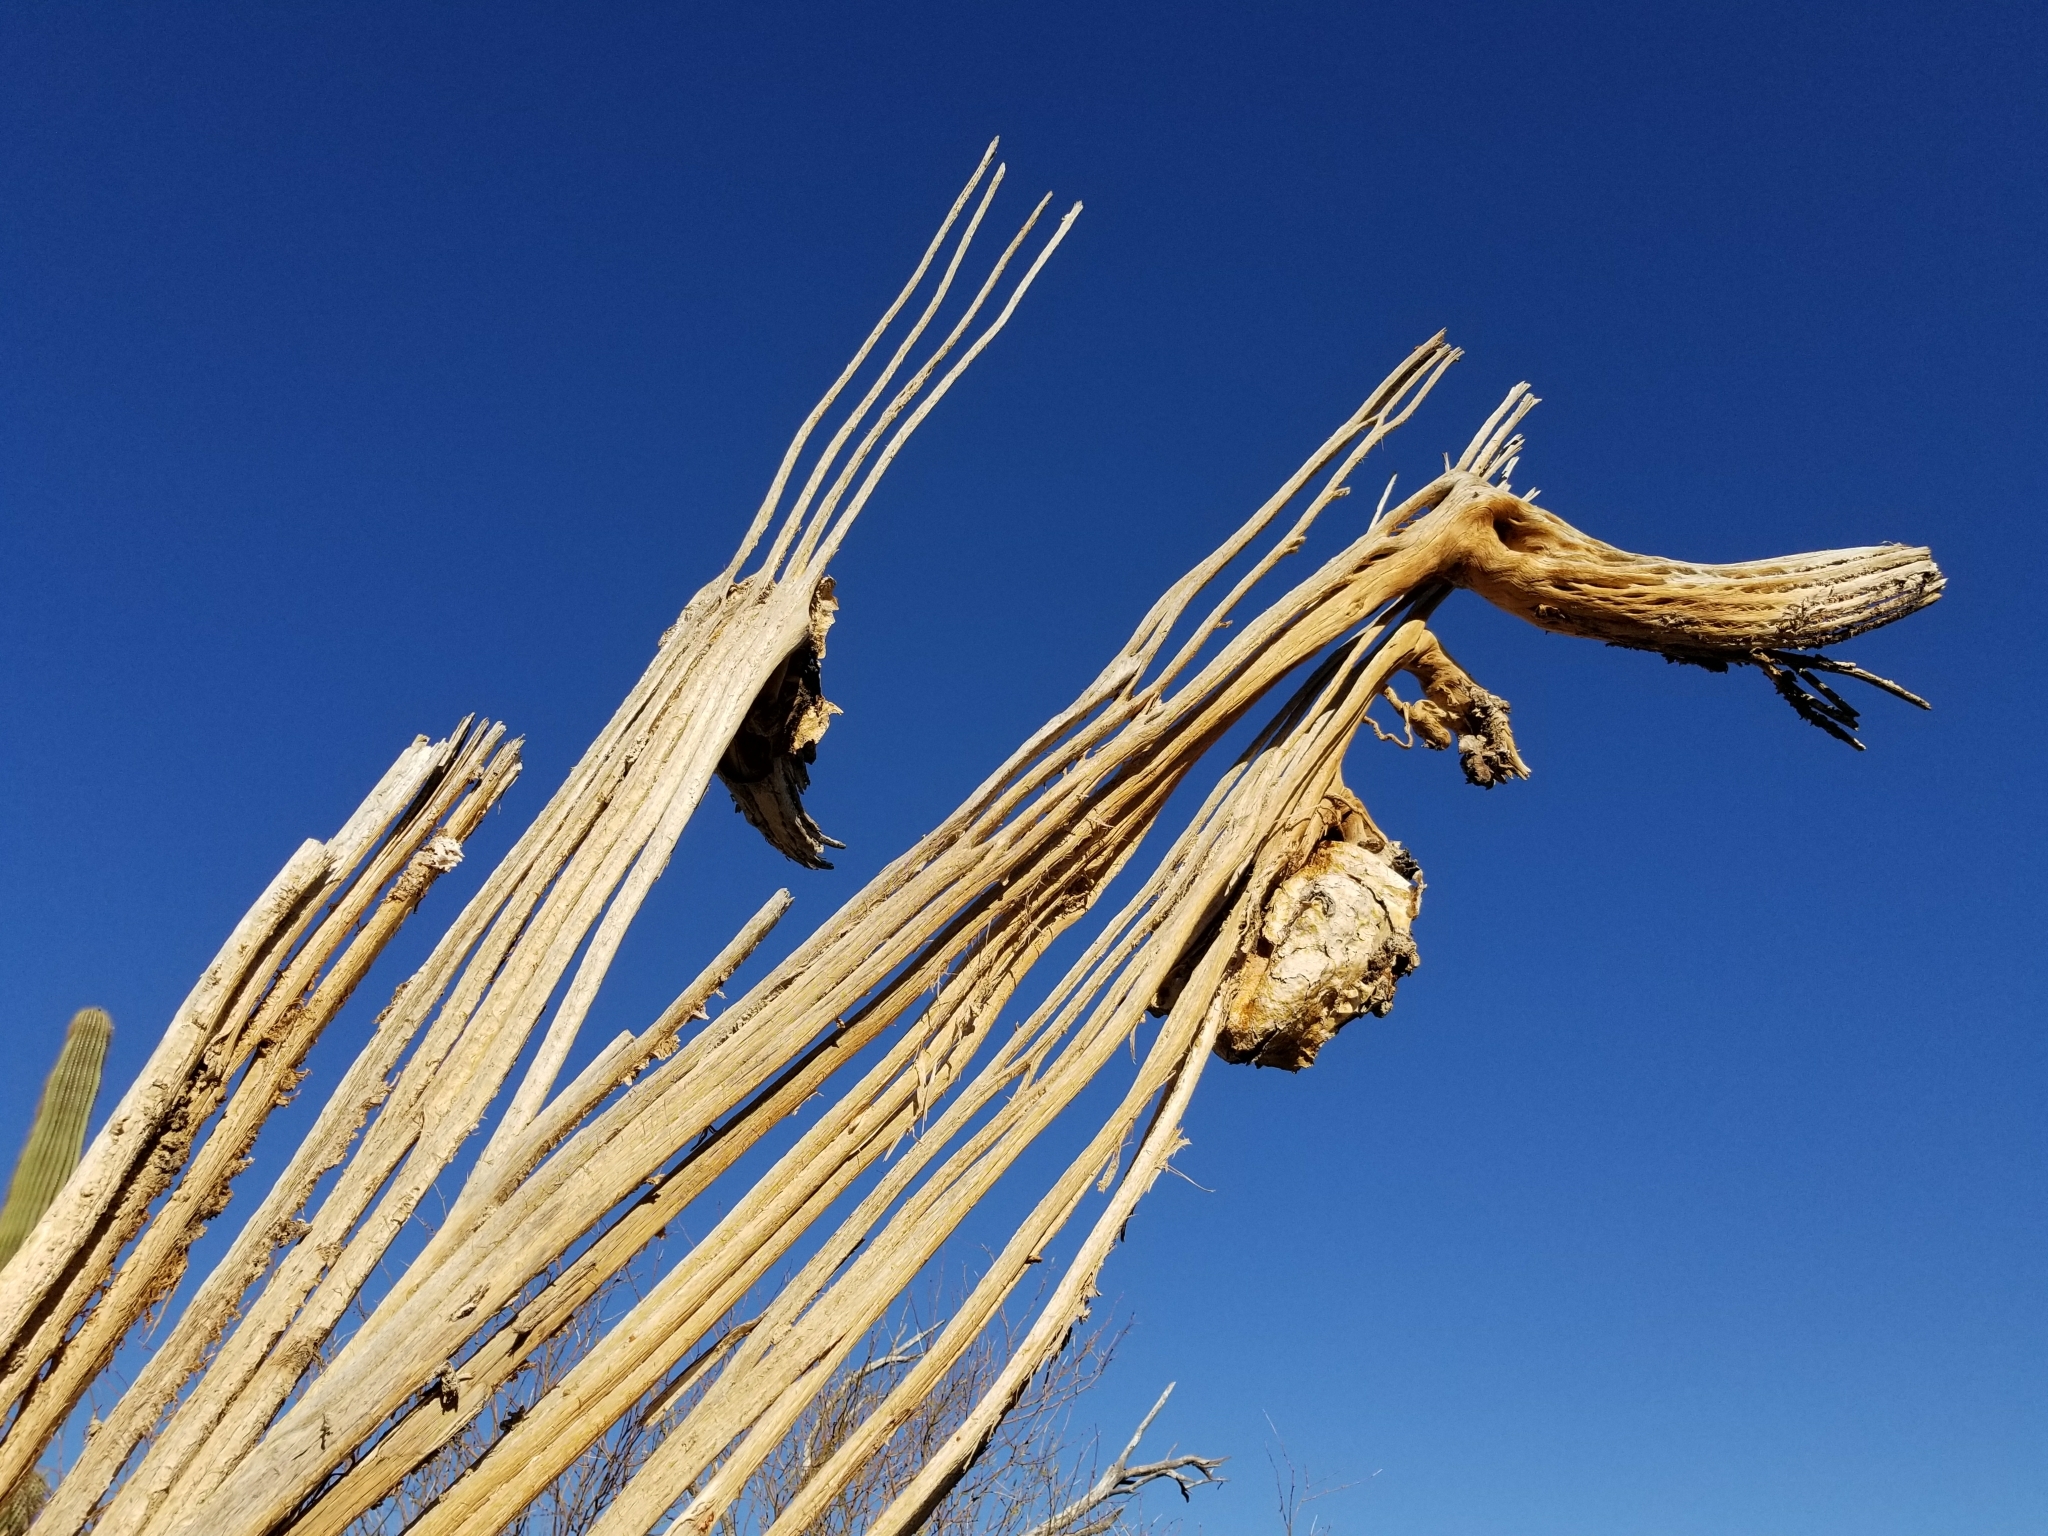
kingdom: Plantae
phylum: Tracheophyta
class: Magnoliopsida
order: Caryophyllales
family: Cactaceae
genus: Carnegiea
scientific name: Carnegiea gigantea
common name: Saguaro
